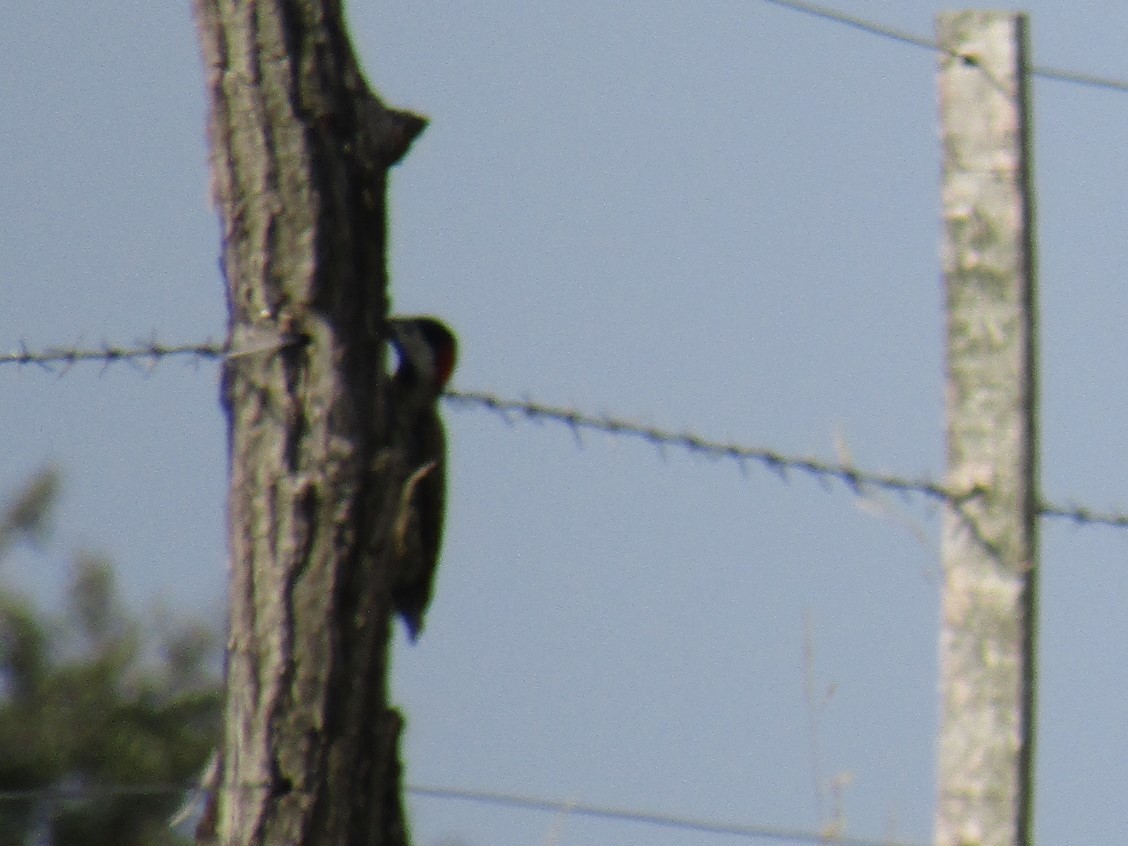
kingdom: Animalia
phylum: Chordata
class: Aves
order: Piciformes
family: Picidae
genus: Colaptes
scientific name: Colaptes melanochloros
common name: Green-barred woodpecker
